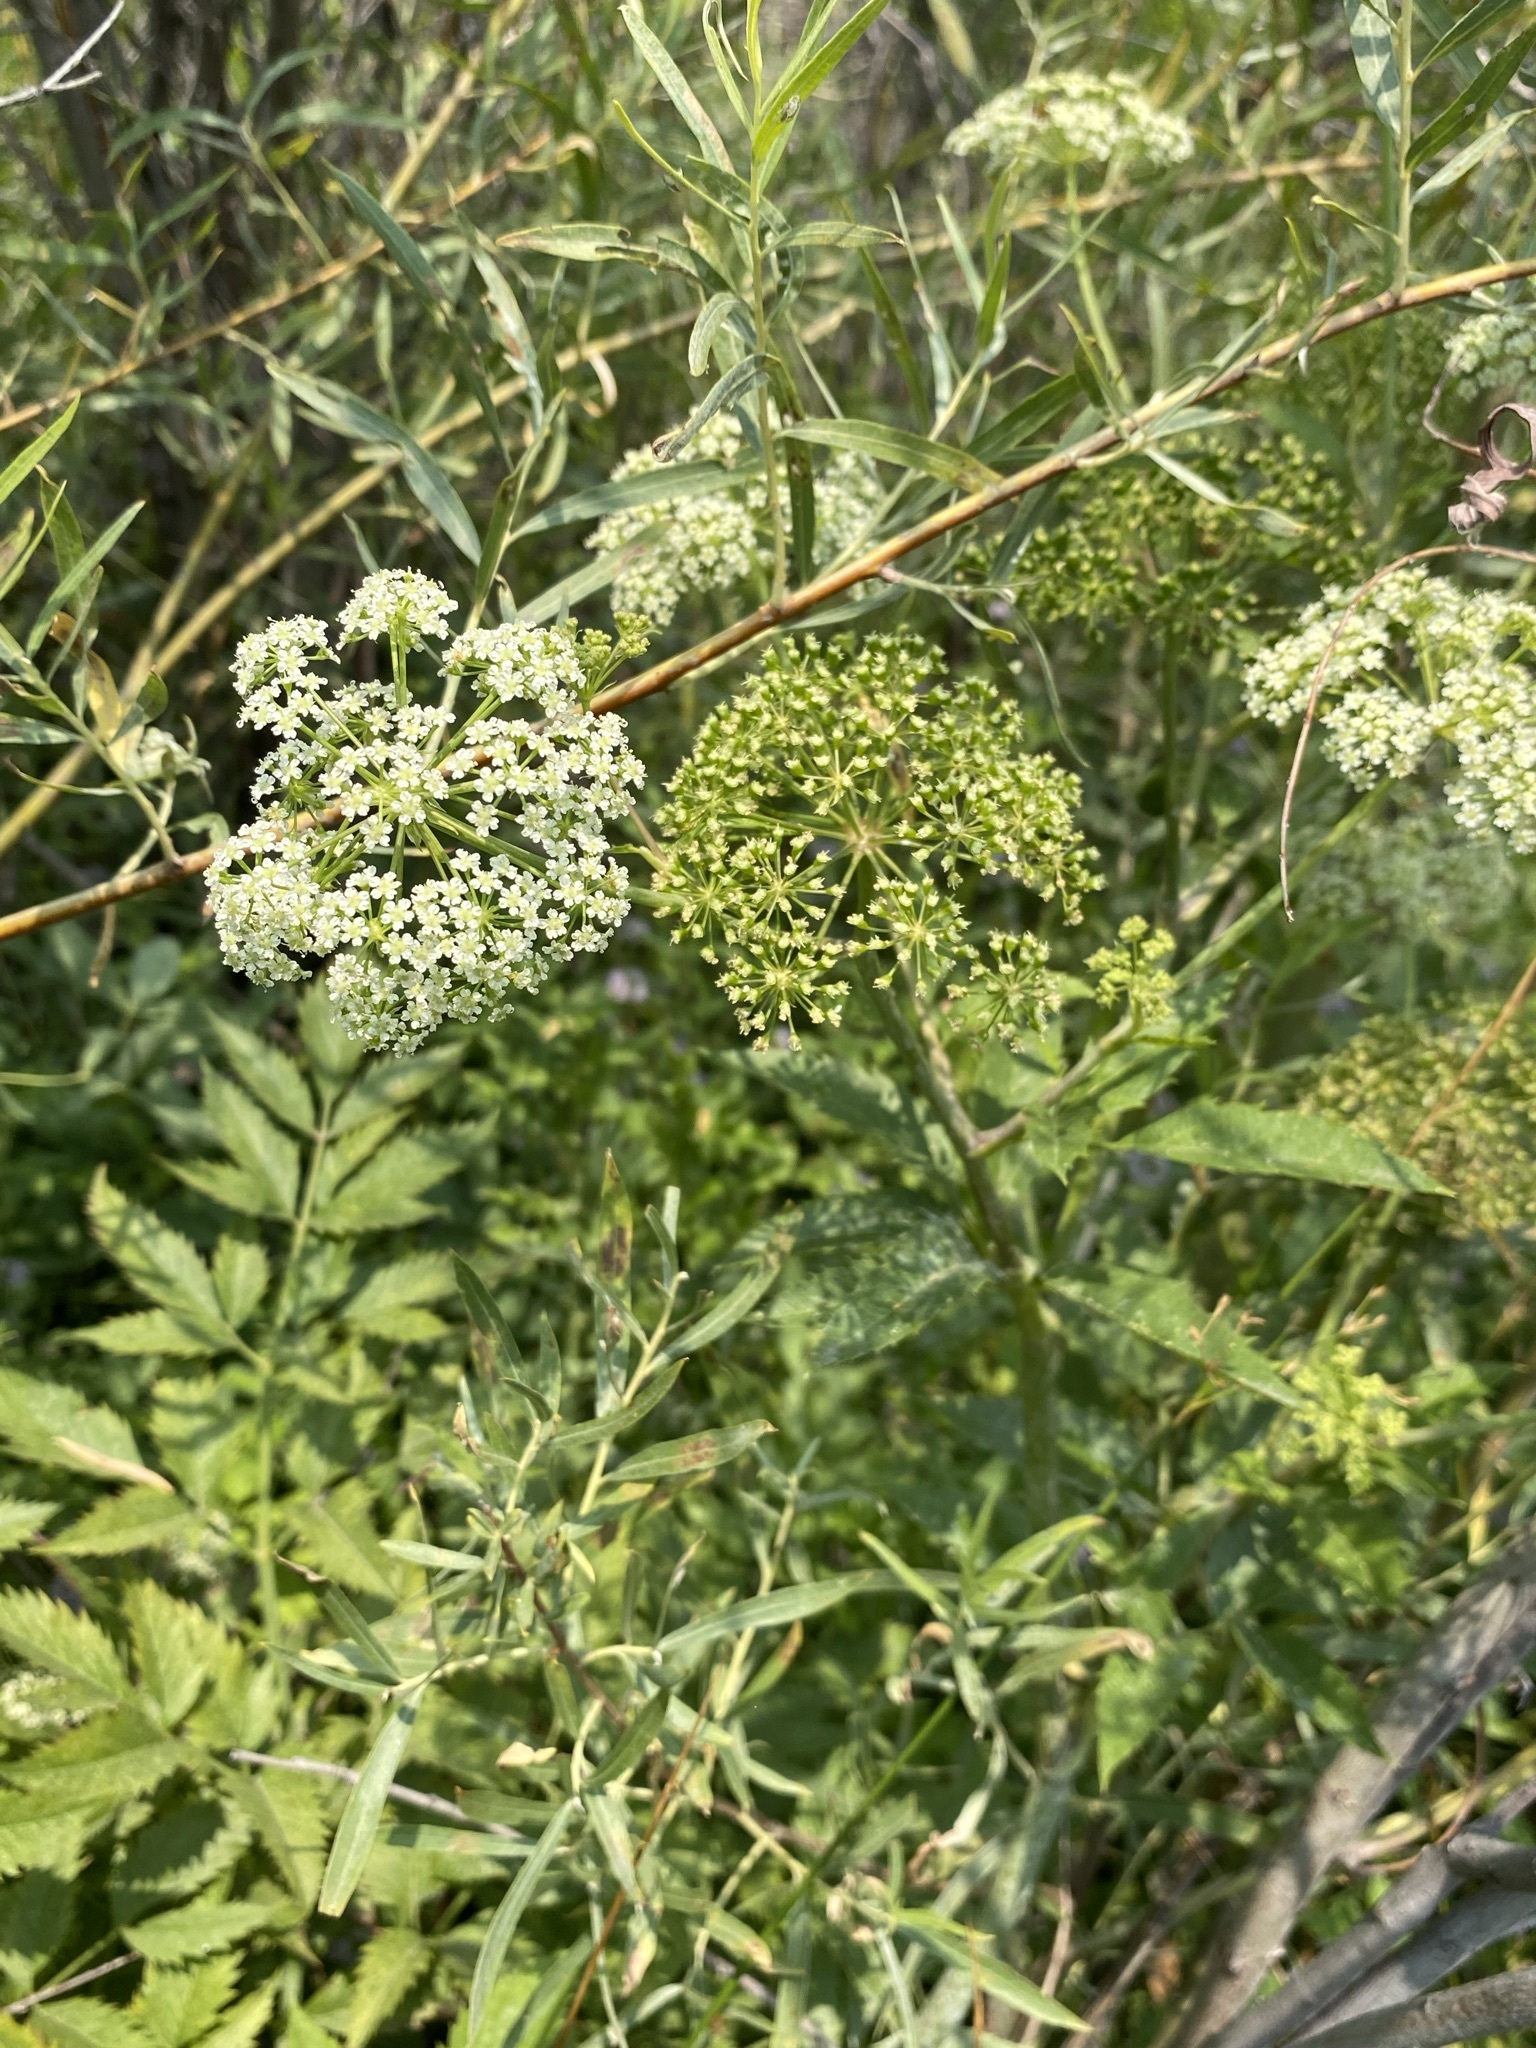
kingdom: Plantae
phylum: Tracheophyta
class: Magnoliopsida
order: Apiales
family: Apiaceae
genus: Cicuta
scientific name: Cicuta douglasii
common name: Western water-hemlock
